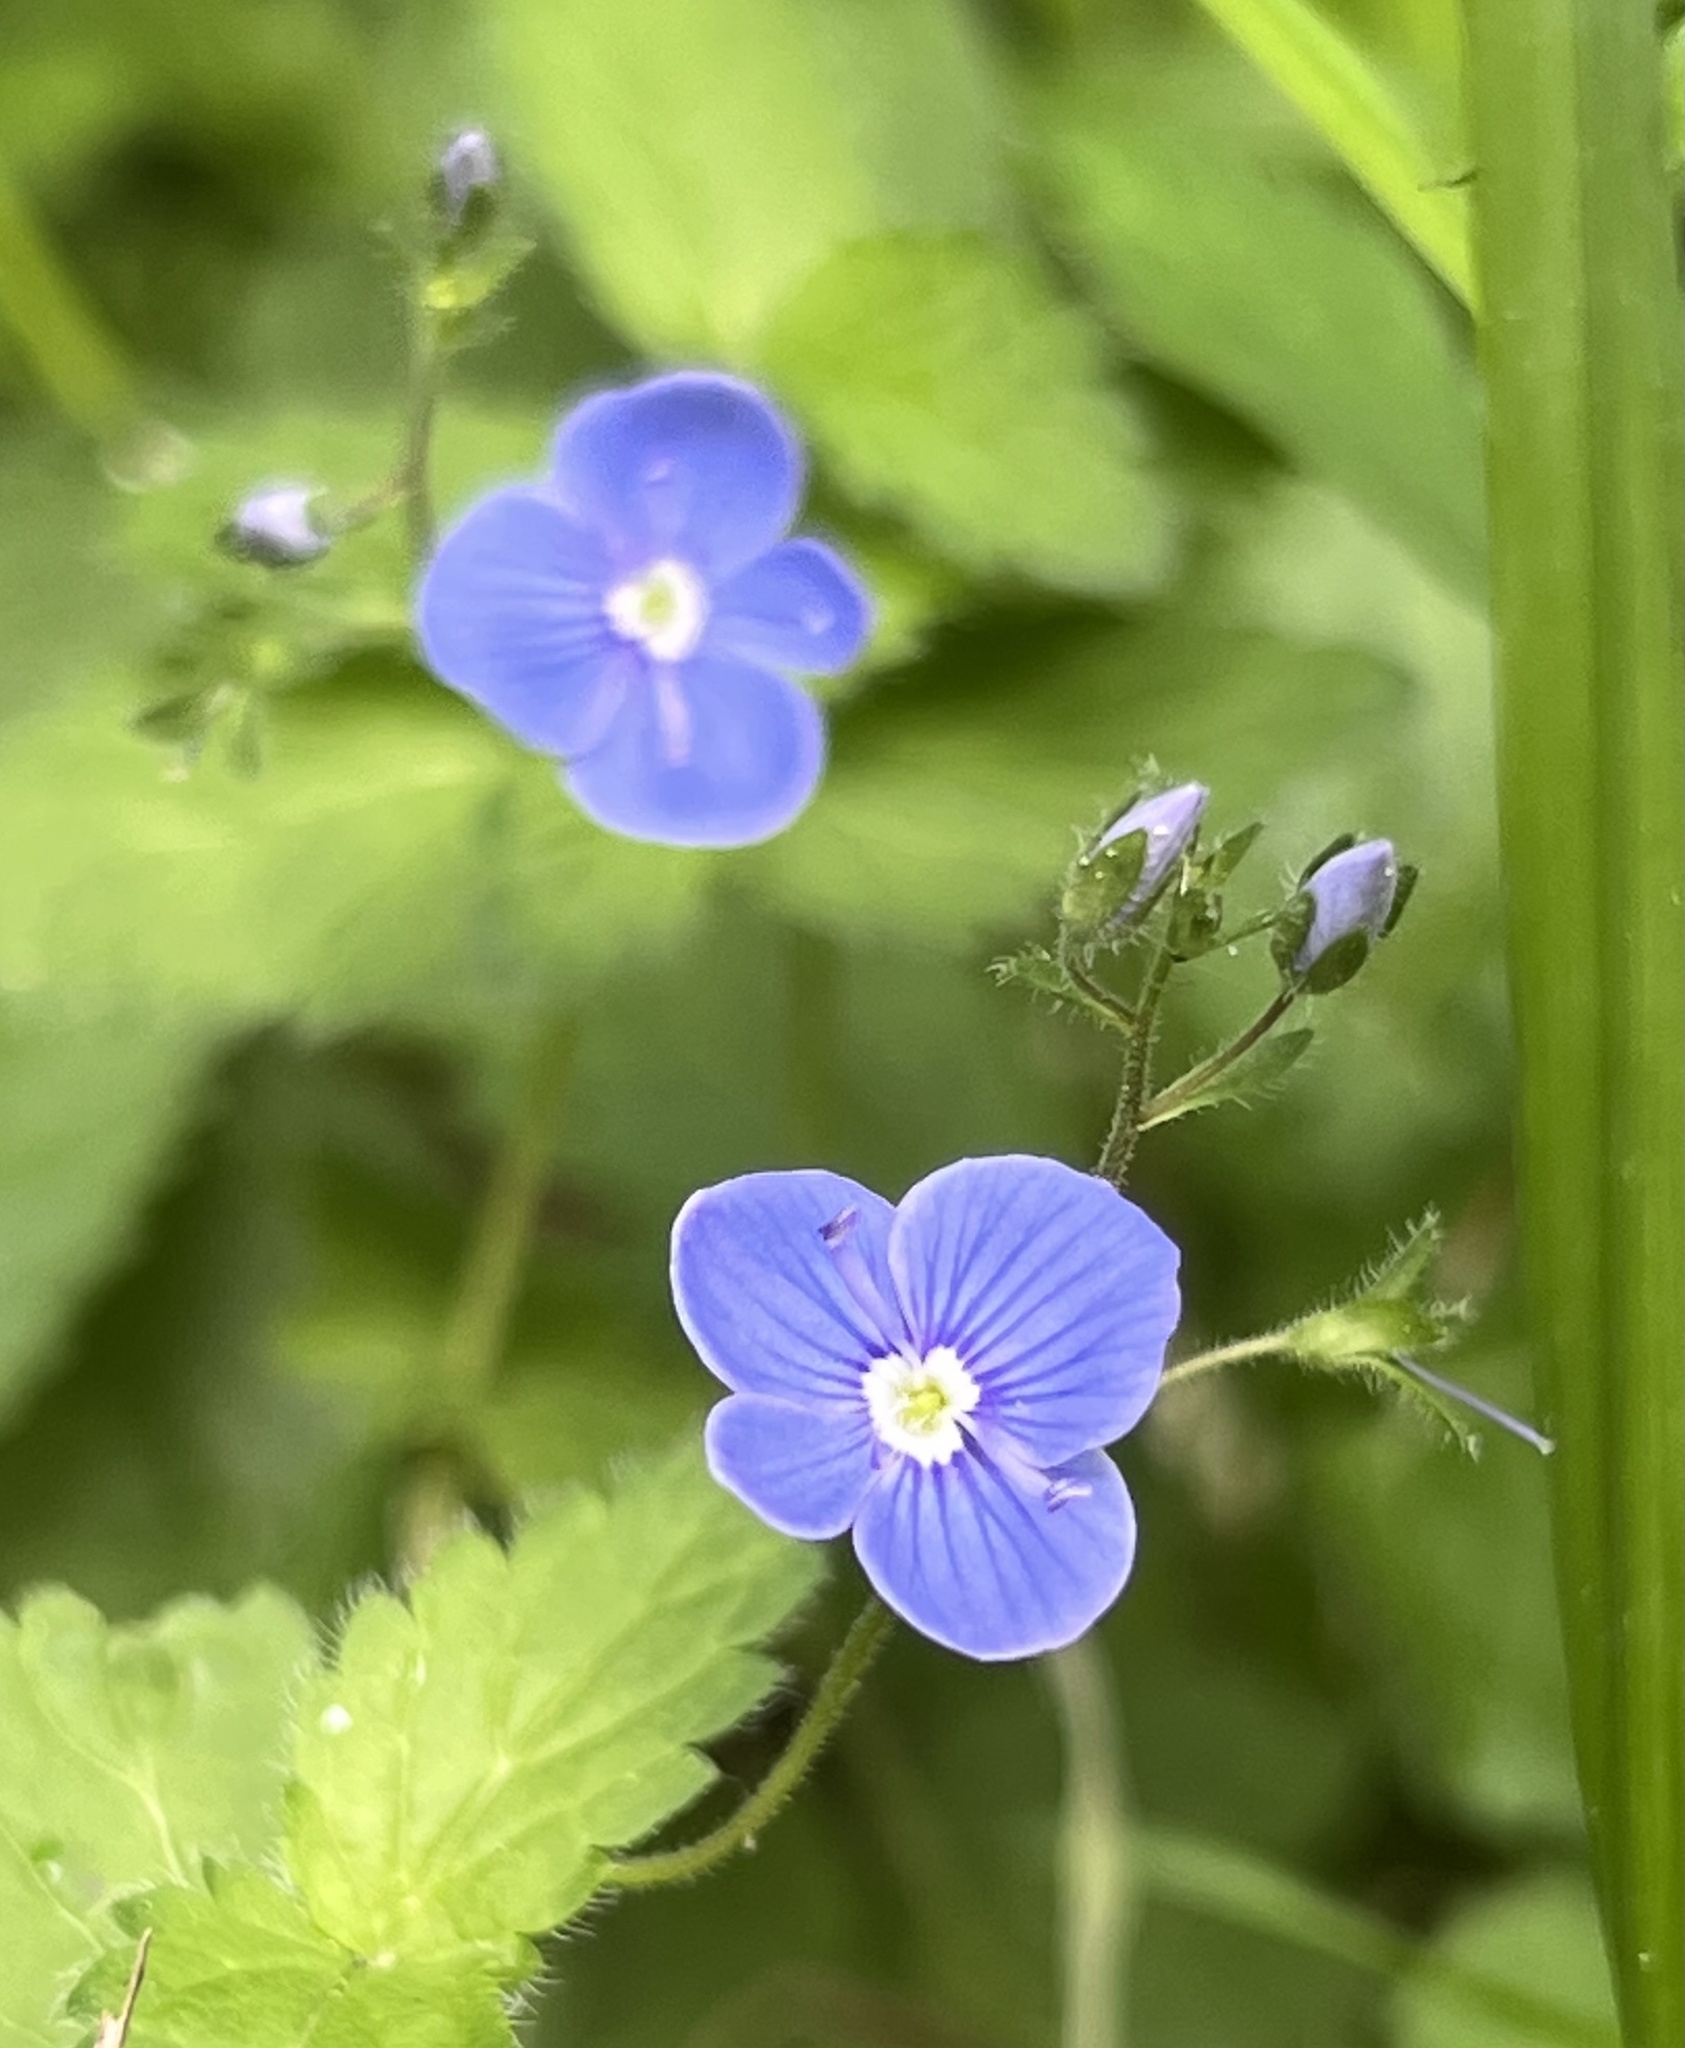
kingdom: Plantae
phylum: Tracheophyta
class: Magnoliopsida
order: Lamiales
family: Plantaginaceae
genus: Veronica
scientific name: Veronica chamaedrys
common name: Germander speedwell
